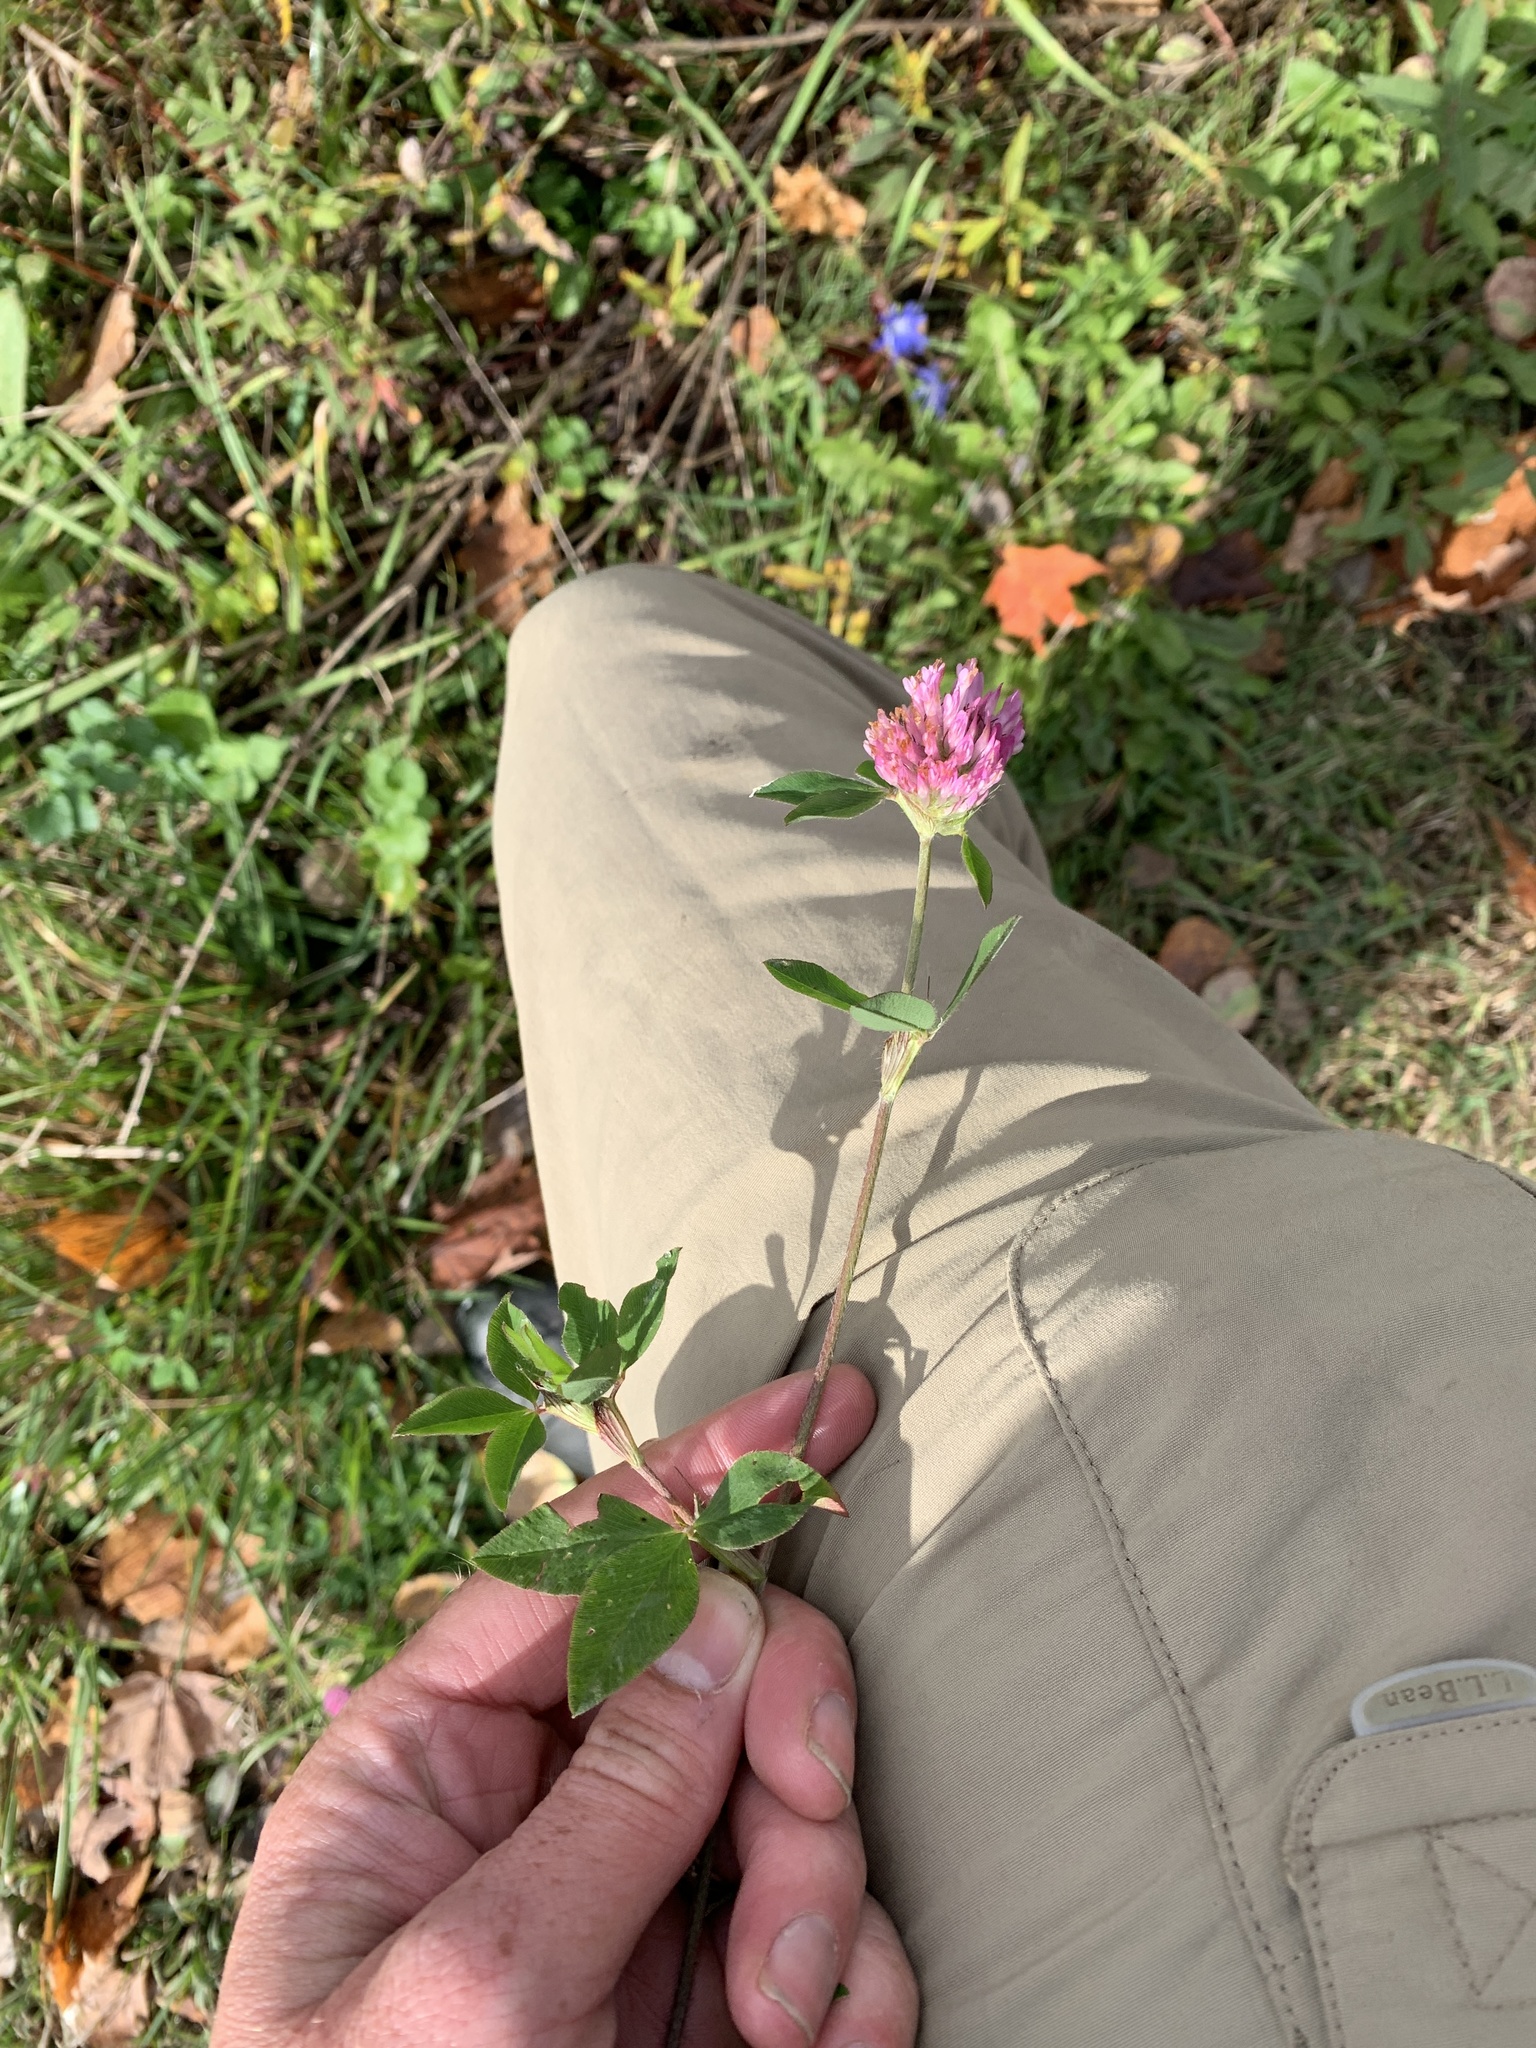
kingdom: Plantae
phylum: Tracheophyta
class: Magnoliopsida
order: Fabales
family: Fabaceae
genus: Trifolium
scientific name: Trifolium pratense
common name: Red clover
